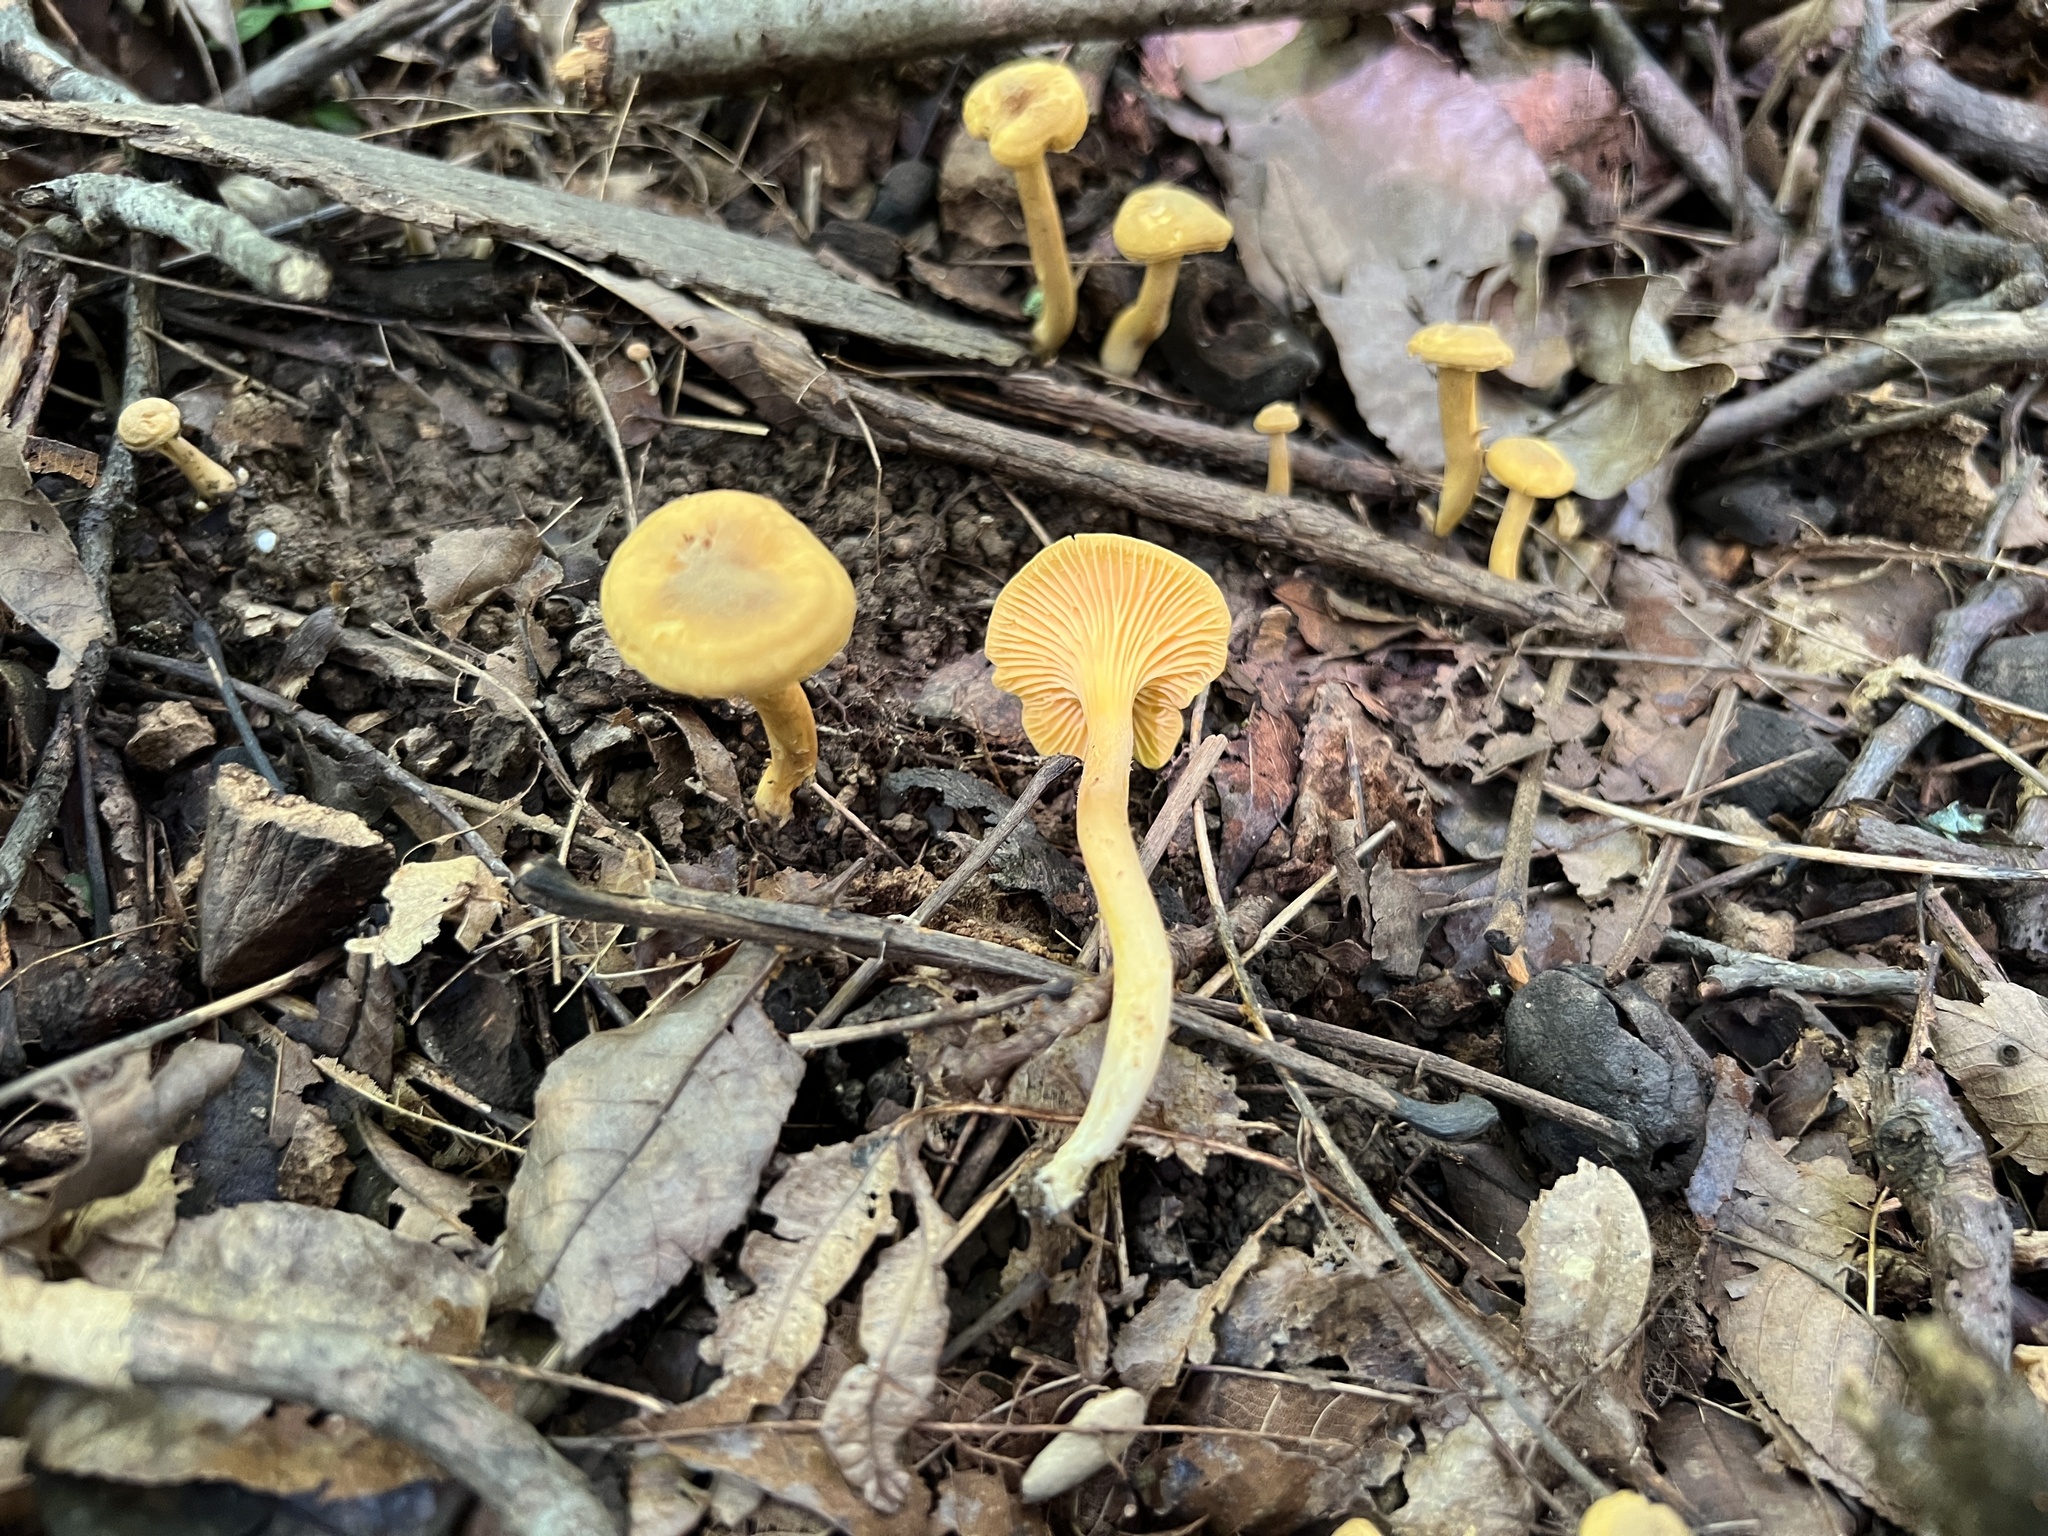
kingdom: Fungi
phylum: Basidiomycota
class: Agaricomycetes
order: Cantharellales
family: Hydnaceae
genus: Cantharellus
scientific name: Cantharellus appalachiensis
